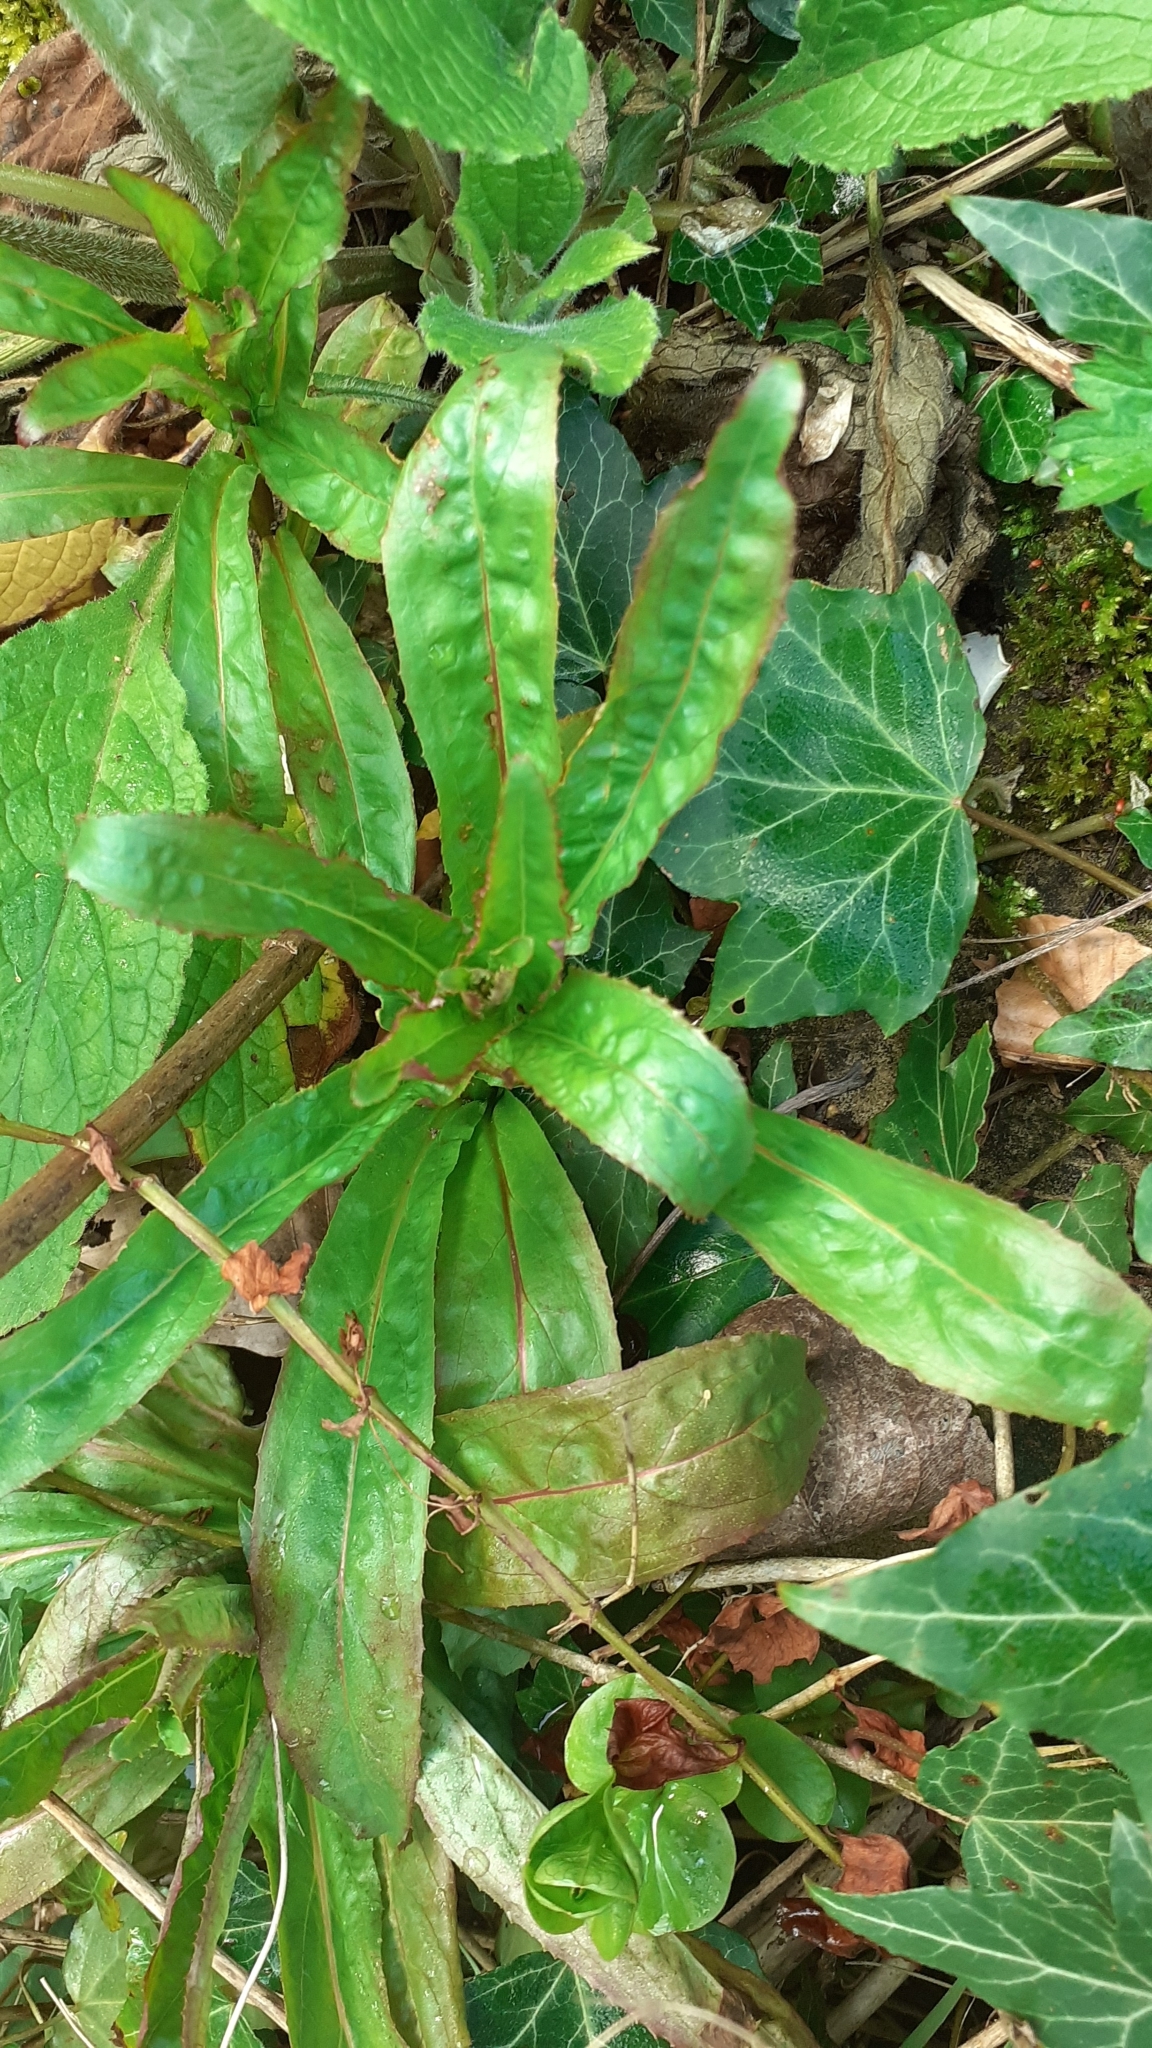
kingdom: Plantae
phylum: Tracheophyta
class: Magnoliopsida
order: Myrtales
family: Onagraceae
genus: Epilobium
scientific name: Epilobium hirsutum
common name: Great willowherb
